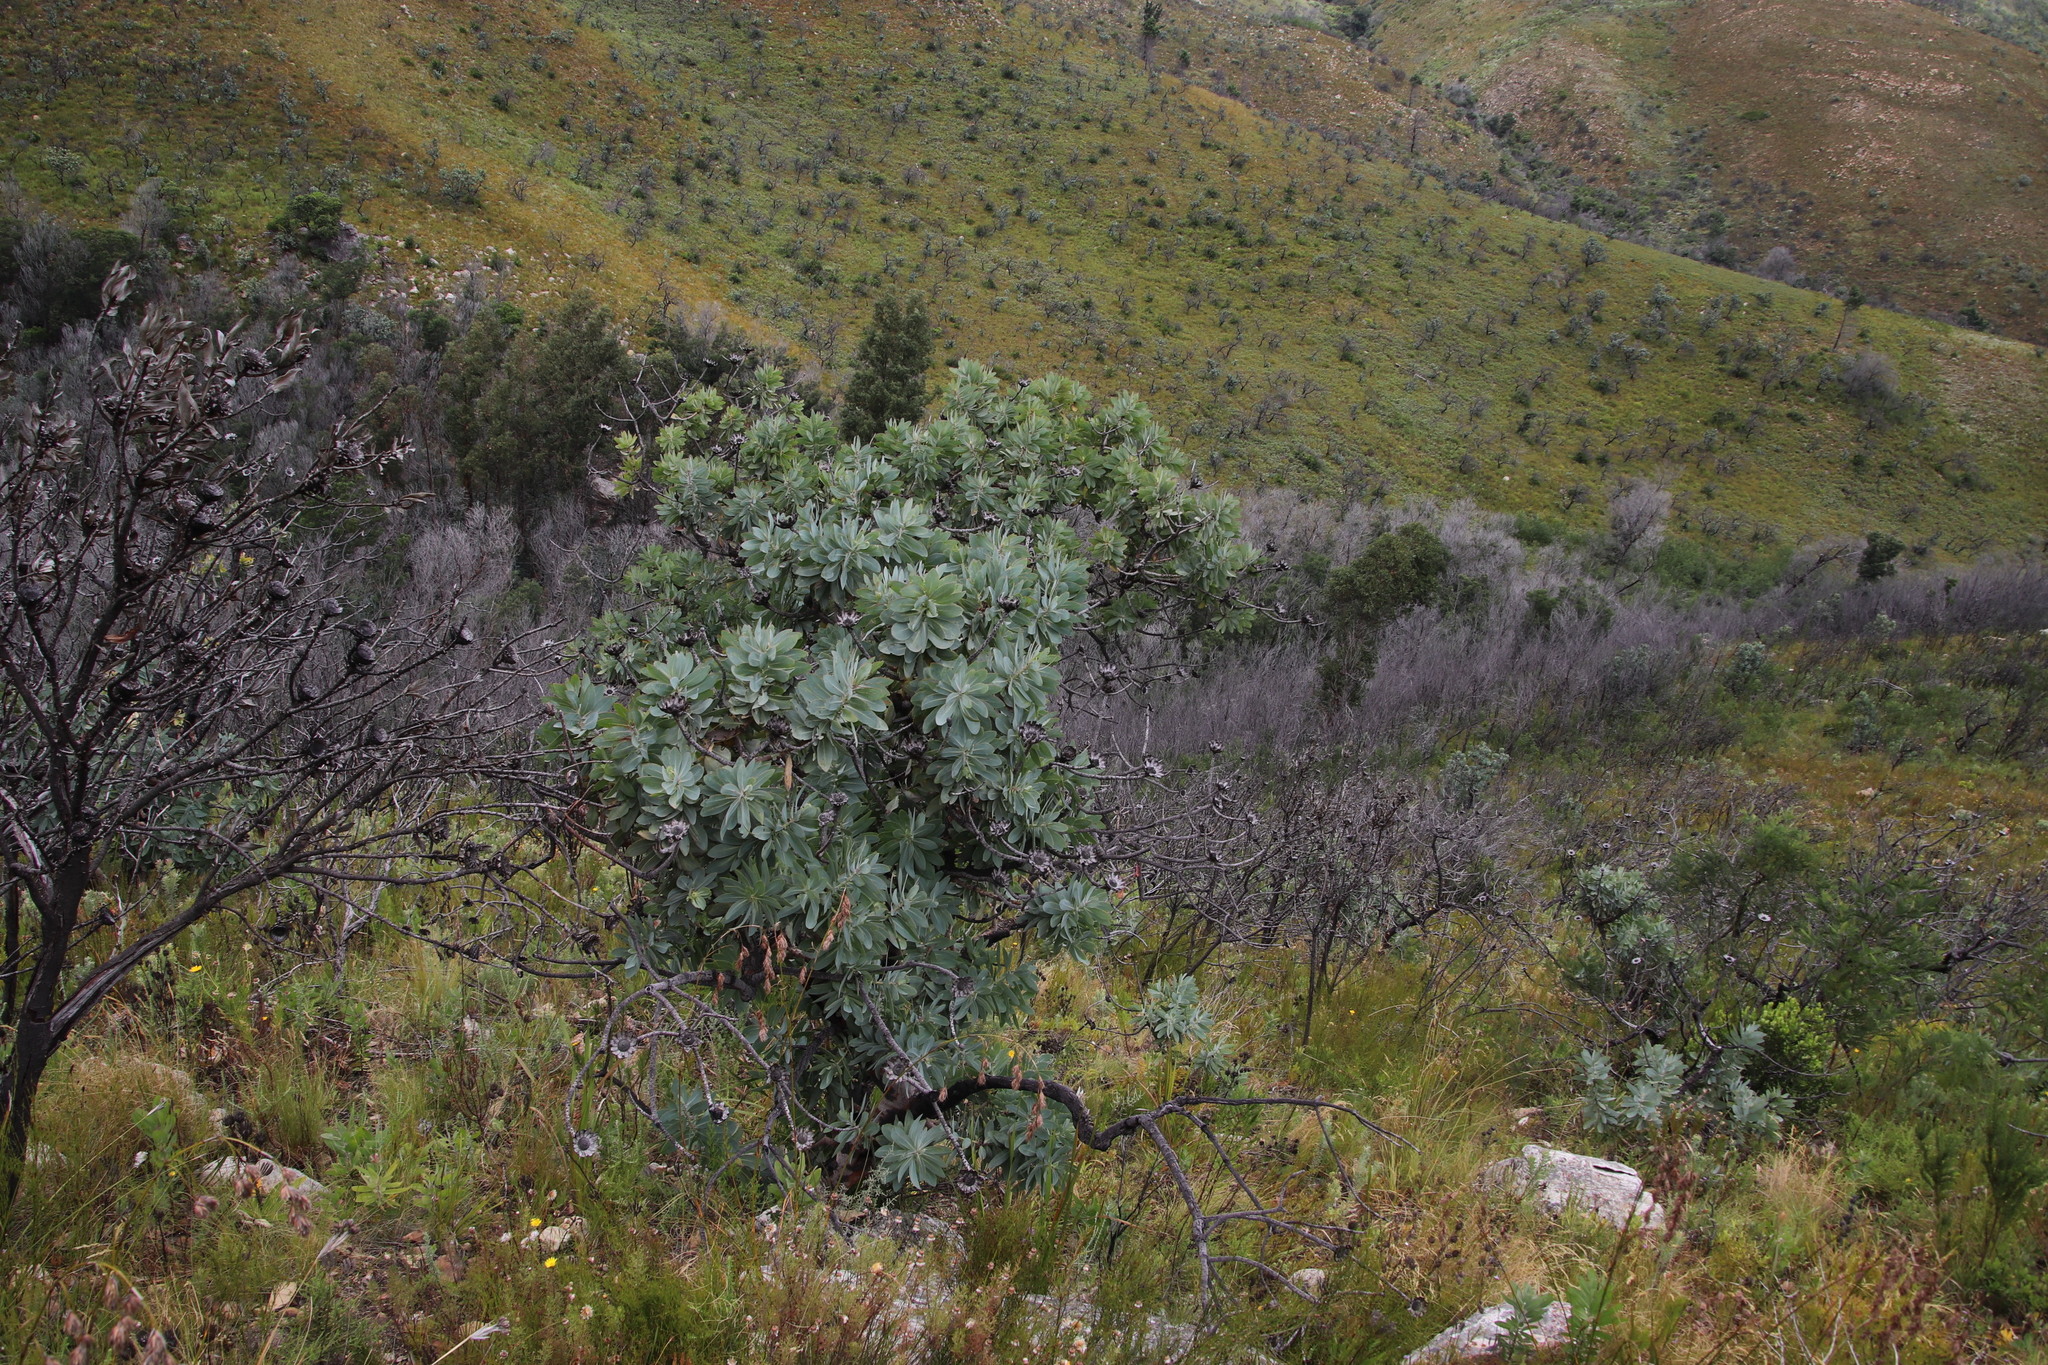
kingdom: Plantae
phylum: Tracheophyta
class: Magnoliopsida
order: Proteales
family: Proteaceae
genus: Protea
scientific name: Protea nitida
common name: Tree protea
